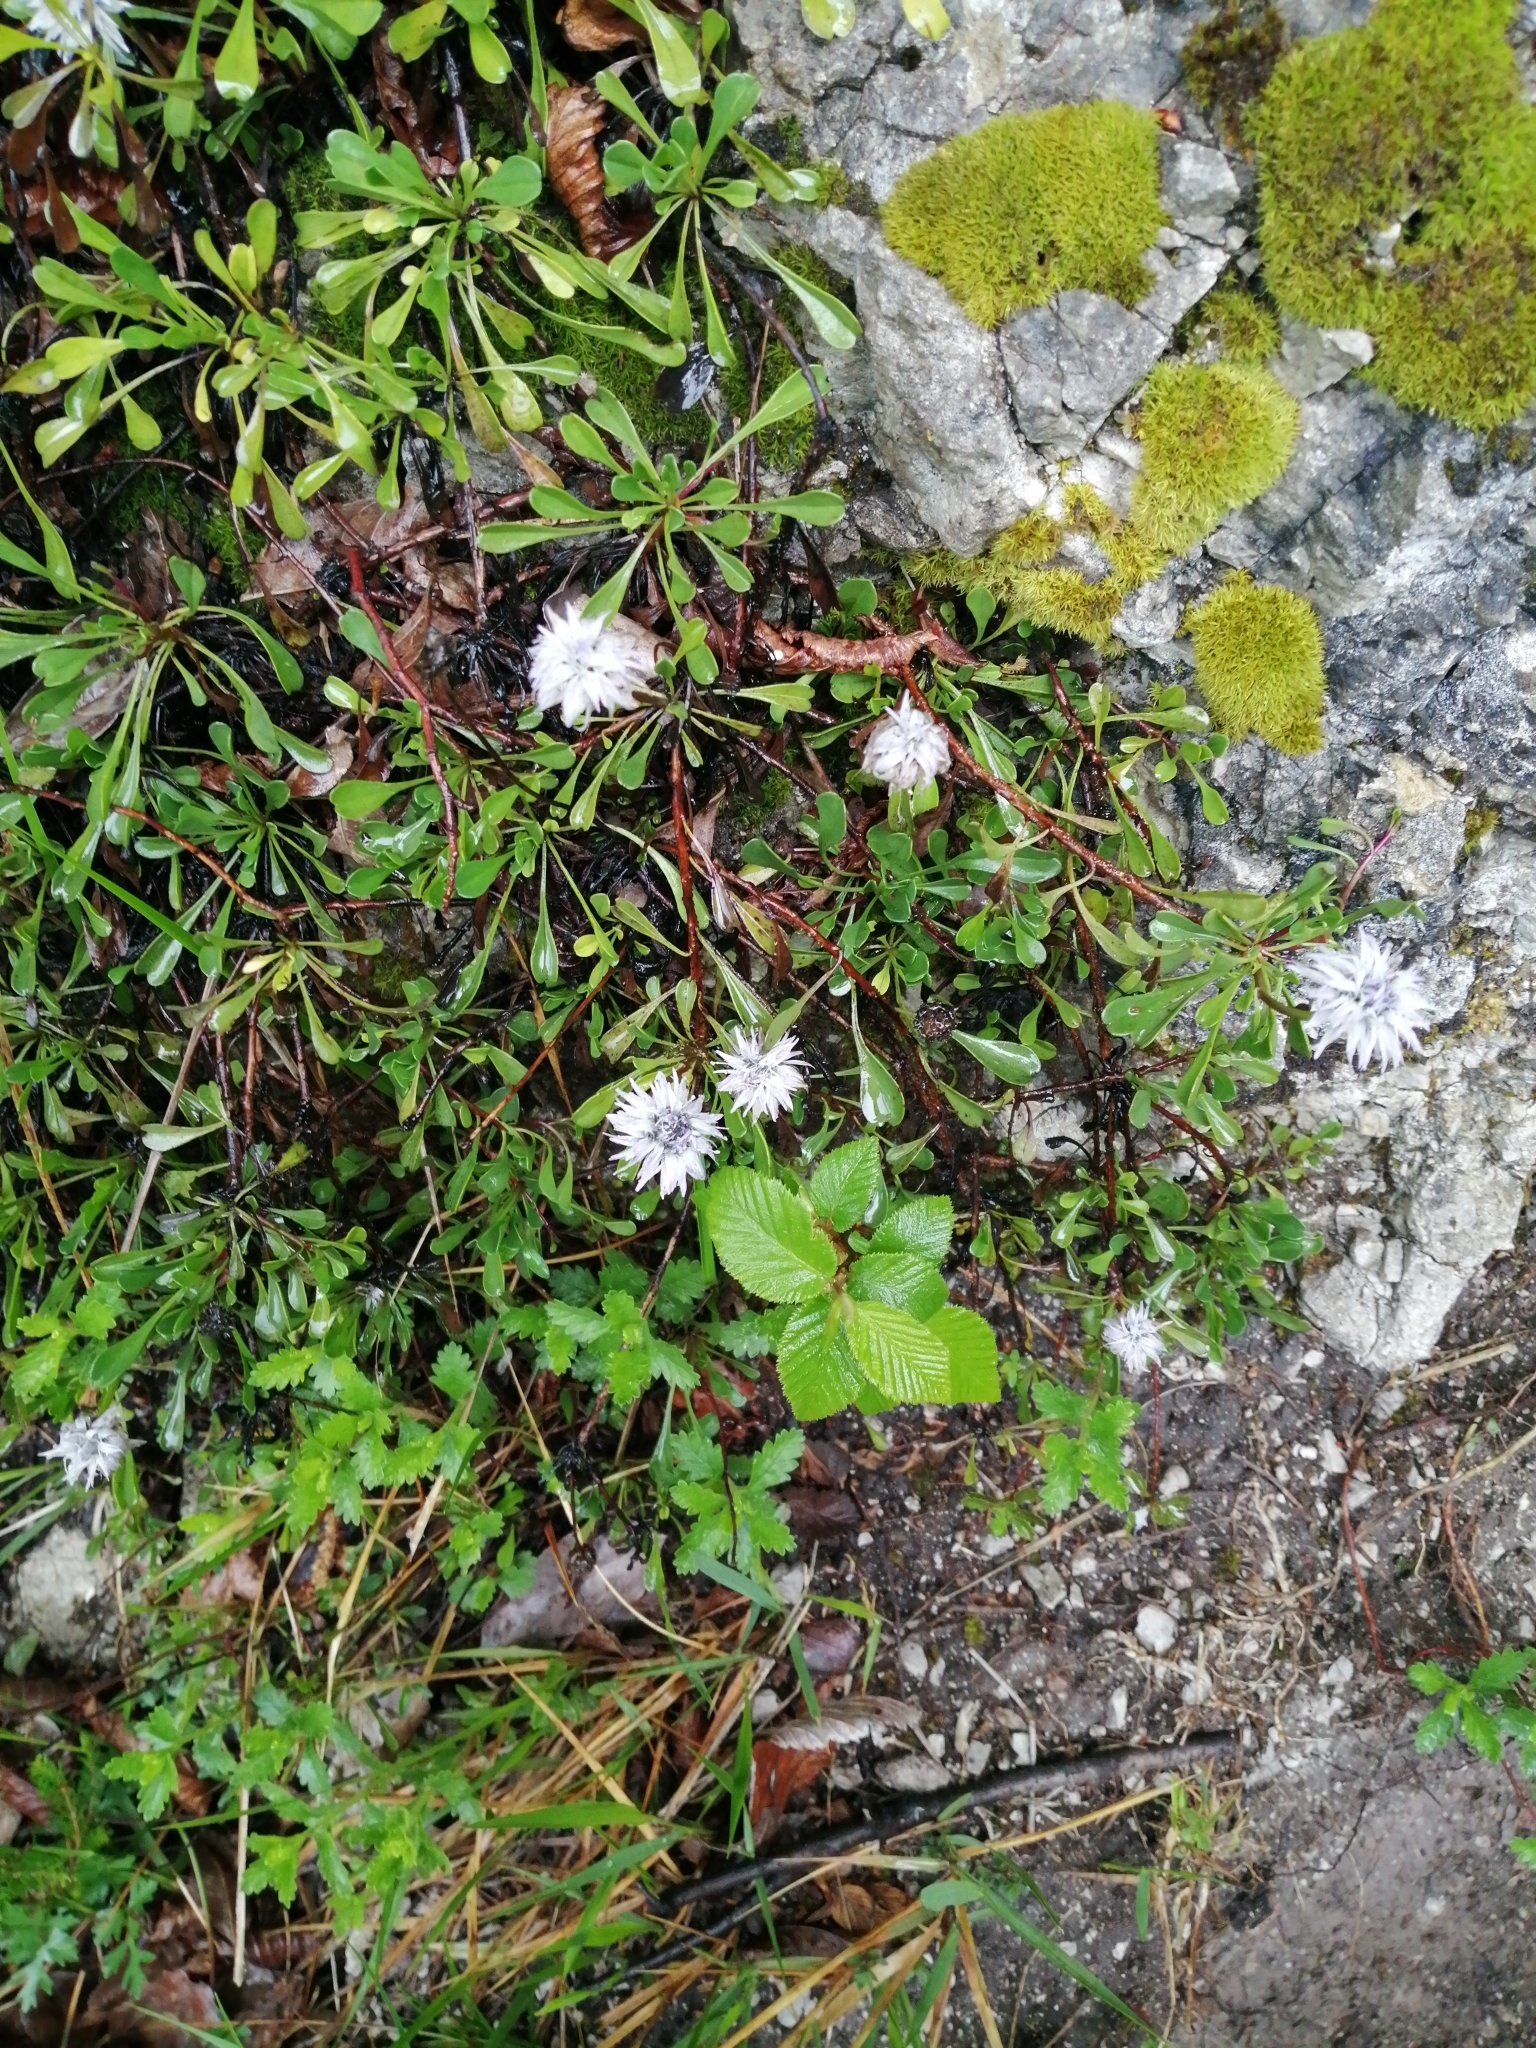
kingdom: Plantae
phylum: Tracheophyta
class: Magnoliopsida
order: Lamiales
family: Plantaginaceae
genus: Globularia
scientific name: Globularia cordifolia
